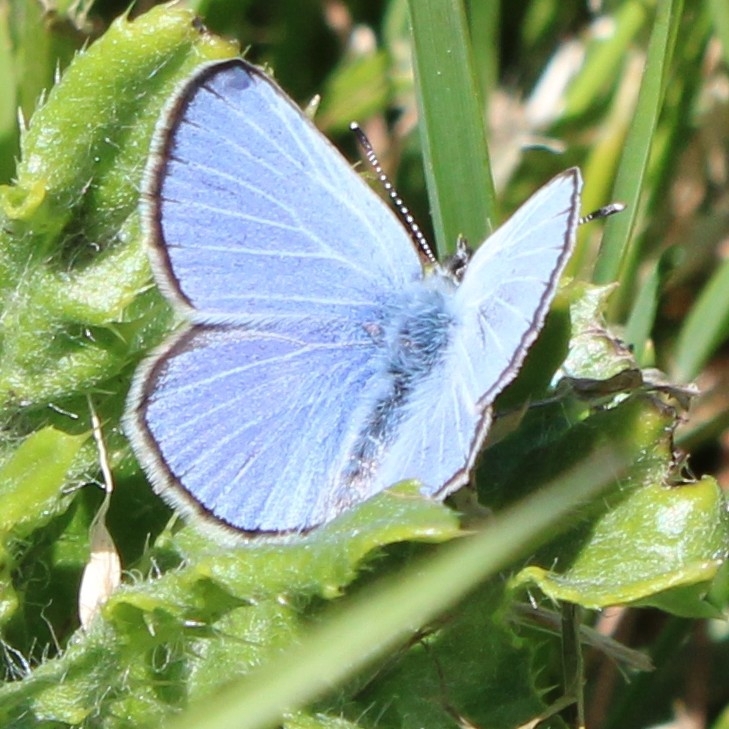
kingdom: Animalia
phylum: Arthropoda
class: Insecta
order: Lepidoptera
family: Lycaenidae
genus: Glaucopsyche
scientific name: Glaucopsyche lygdamus
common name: Silvery blue
